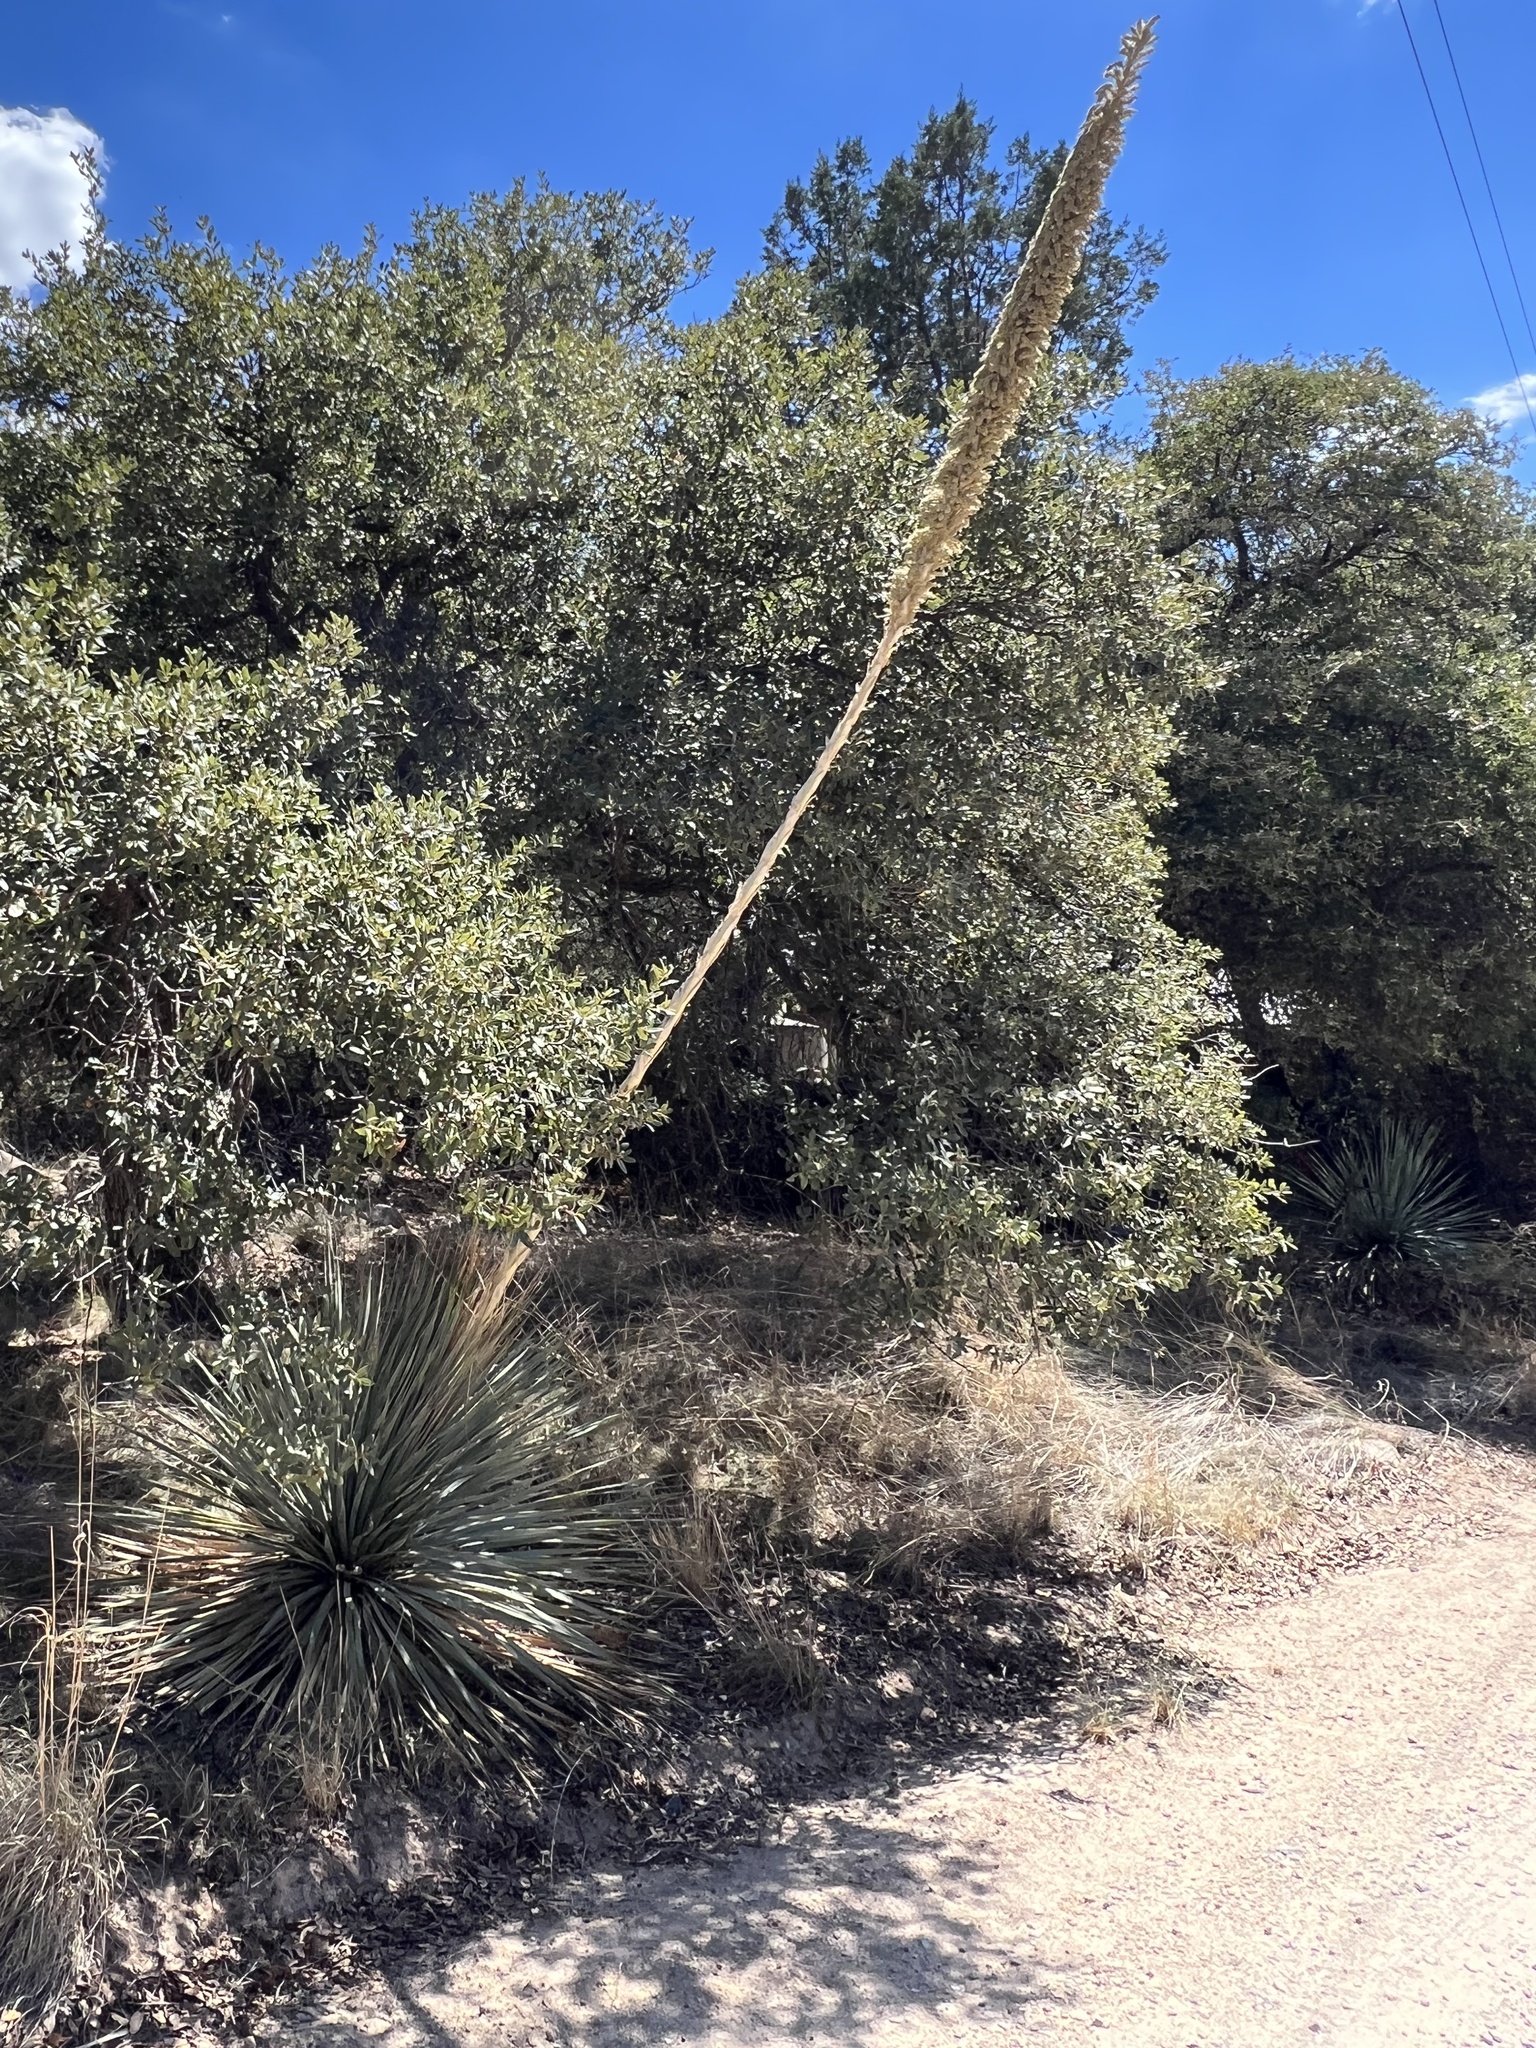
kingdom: Plantae
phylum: Tracheophyta
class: Liliopsida
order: Asparagales
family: Asparagaceae
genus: Dasylirion
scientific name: Dasylirion wheeleri
